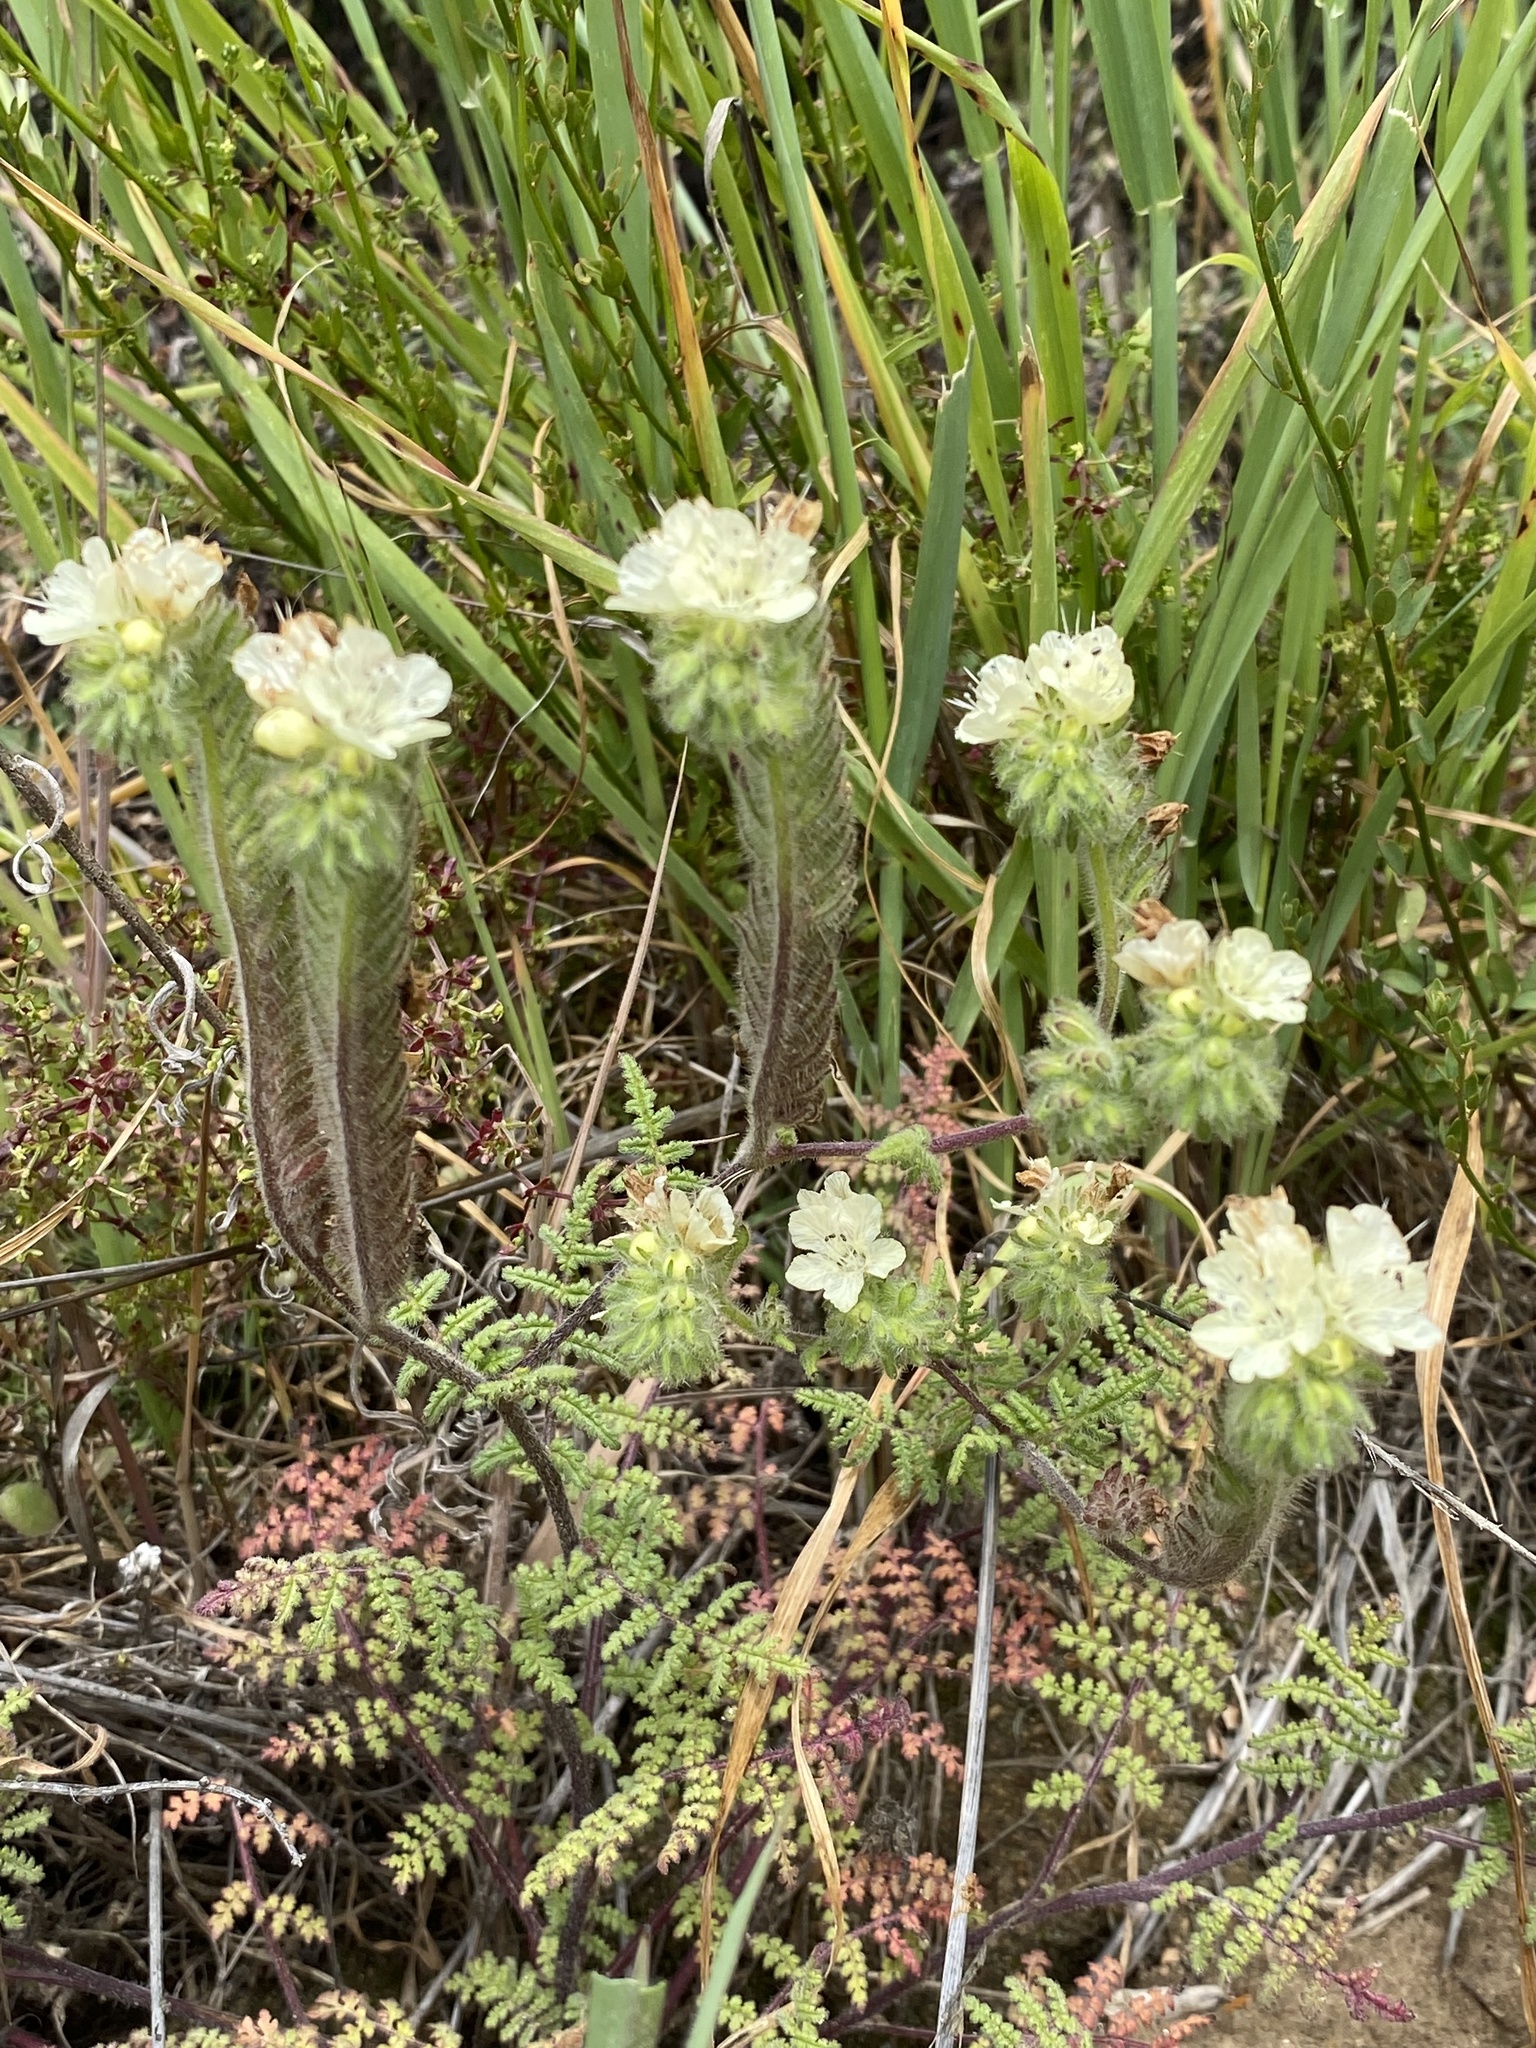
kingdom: Plantae
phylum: Tracheophyta
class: Magnoliopsida
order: Boraginales
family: Hydrophyllaceae
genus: Phacelia
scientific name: Phacelia distans
